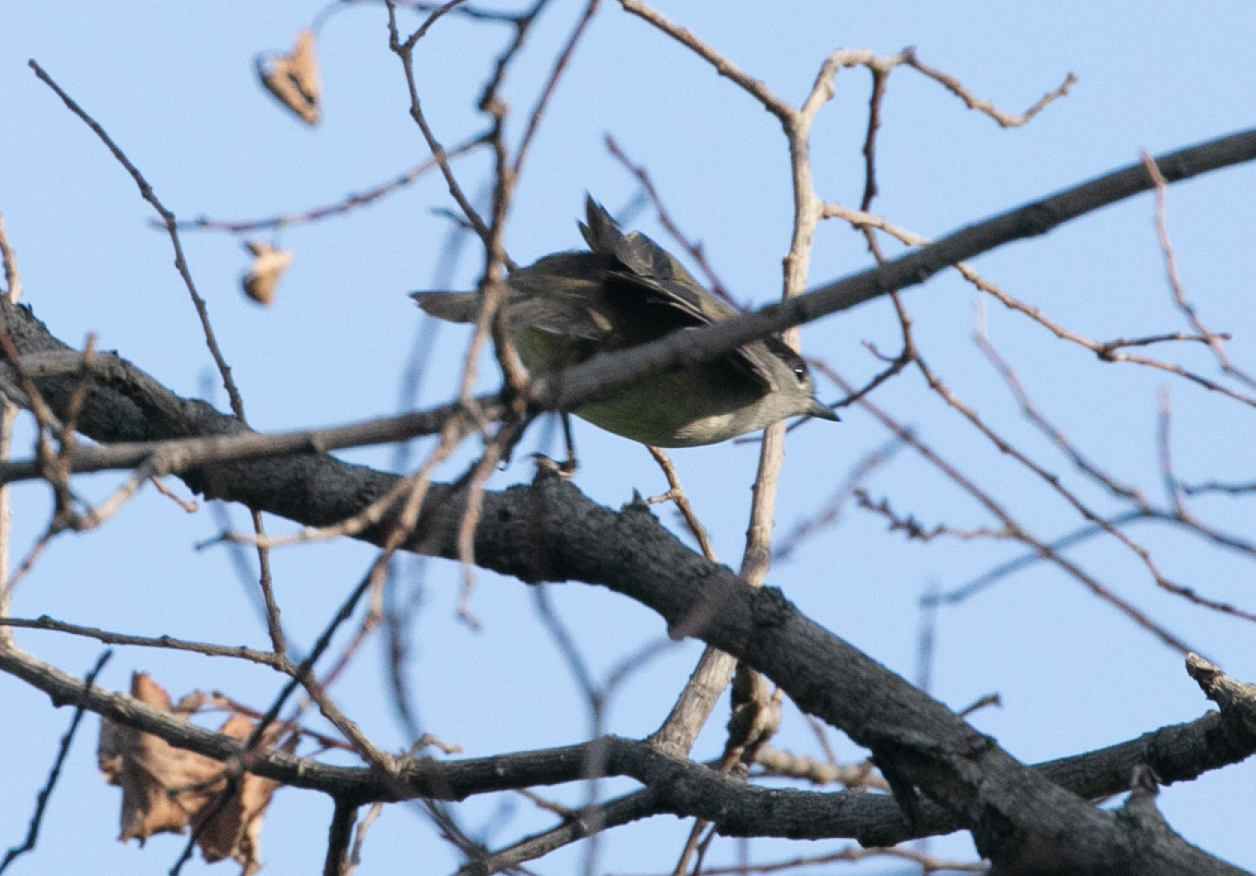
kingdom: Animalia
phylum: Chordata
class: Aves
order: Passeriformes
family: Sylviidae
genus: Sylvia
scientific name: Sylvia atricapilla
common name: Eurasian blackcap
